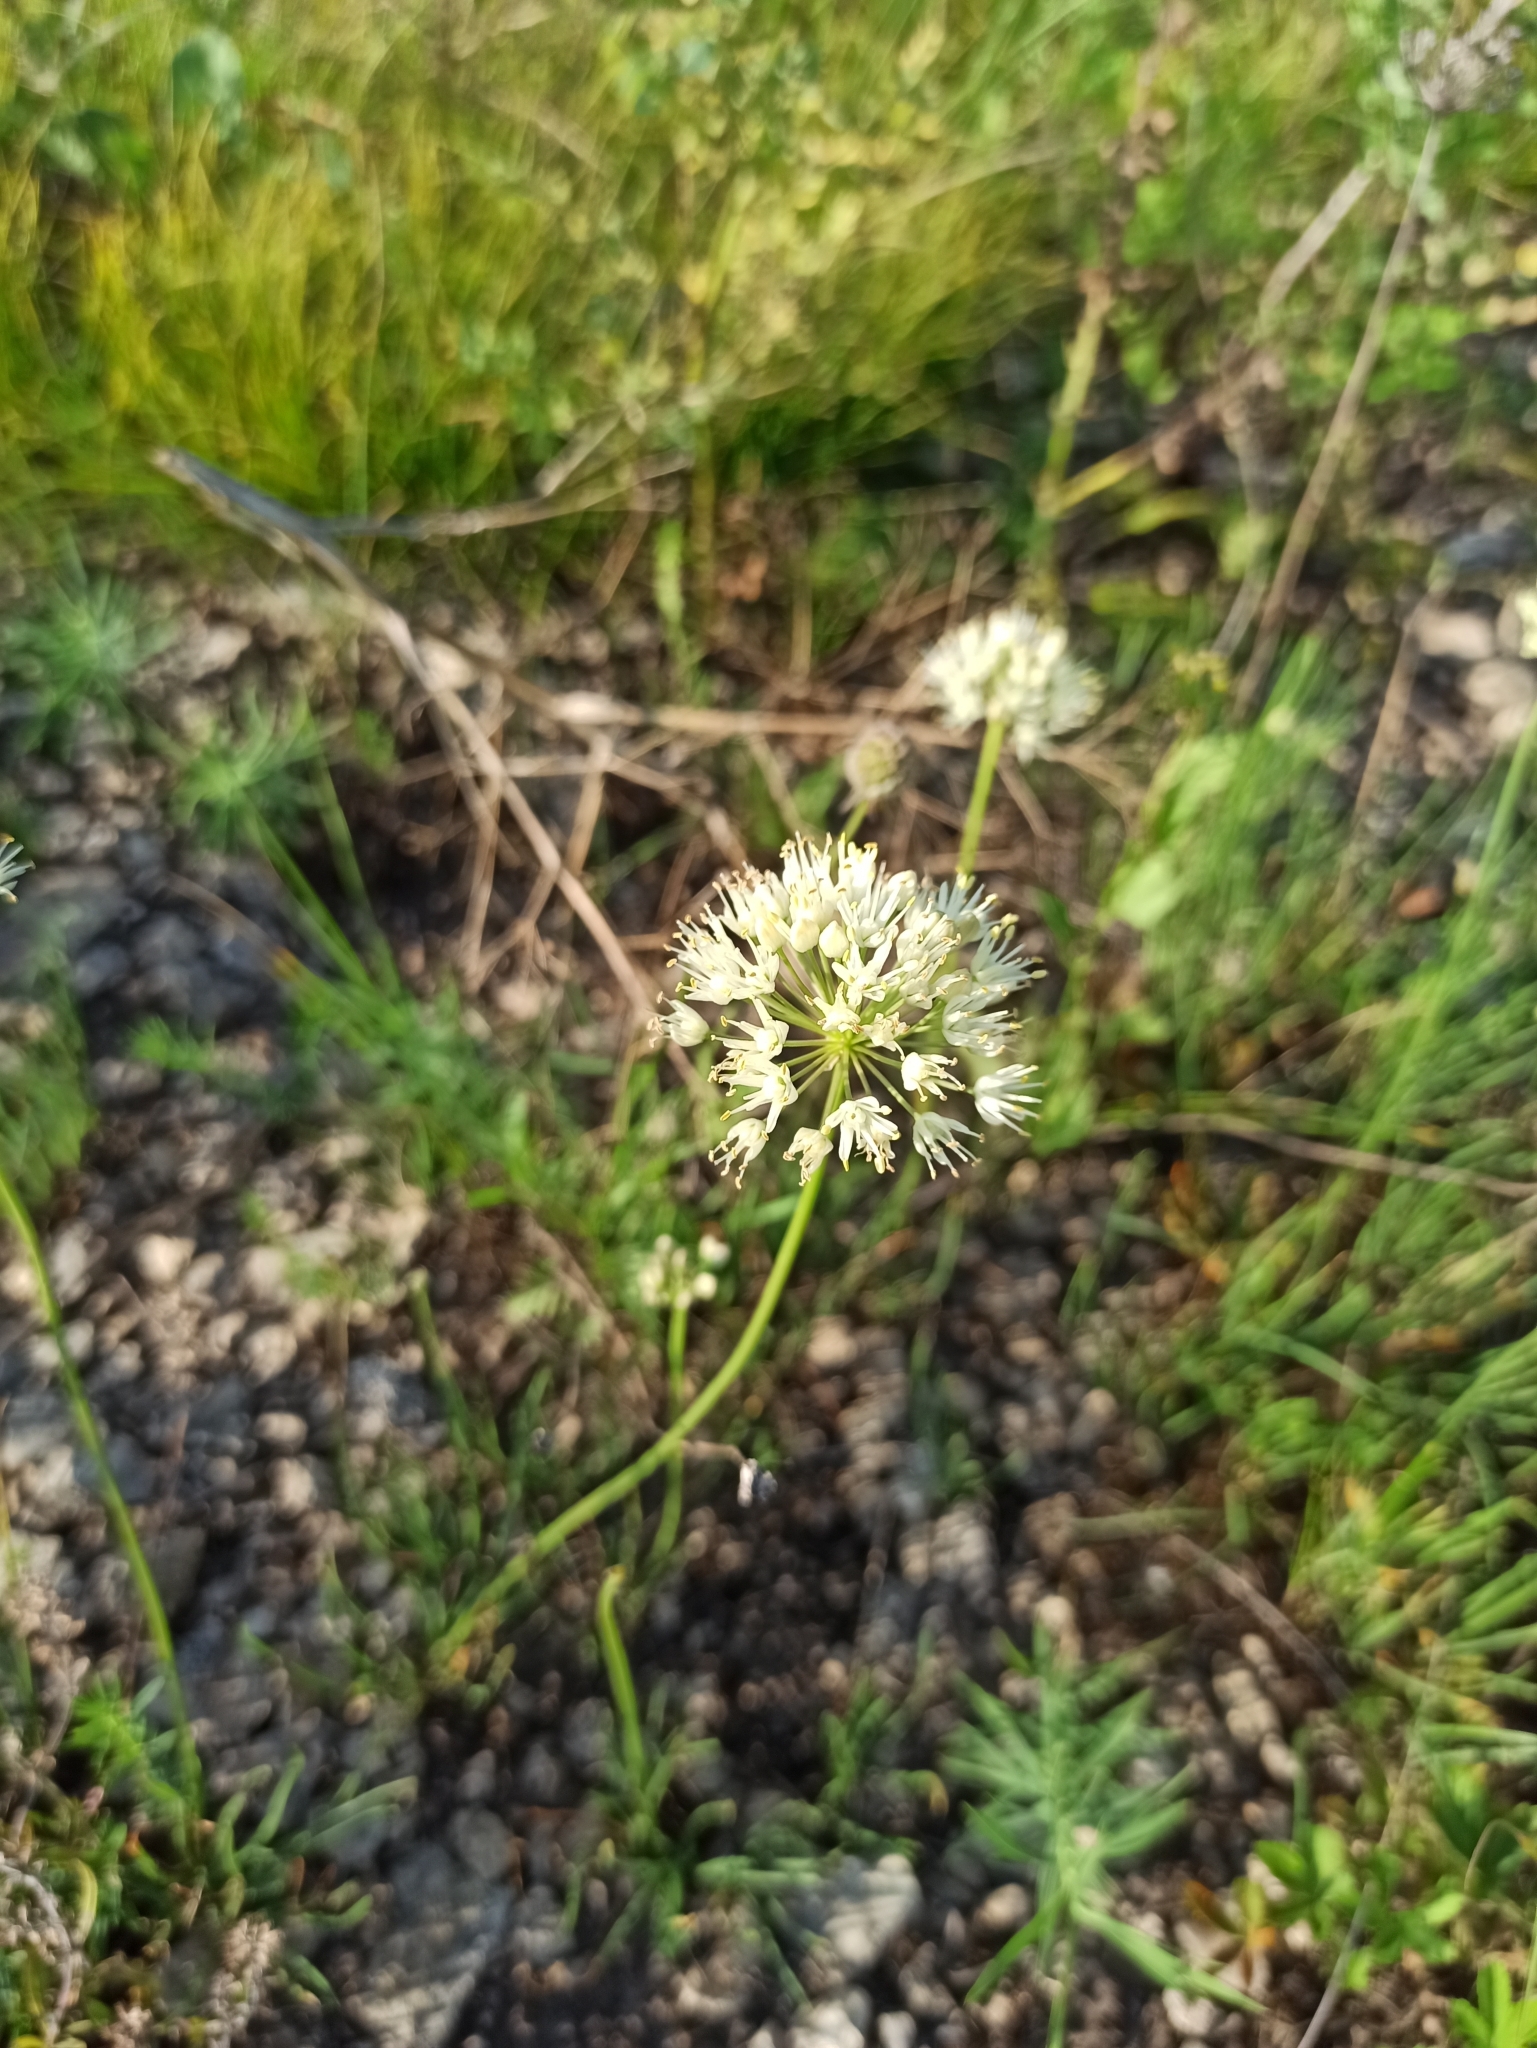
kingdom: Plantae
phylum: Tracheophyta
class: Liliopsida
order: Asparagales
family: Amaryllidaceae
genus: Allium
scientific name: Allium flavescens
